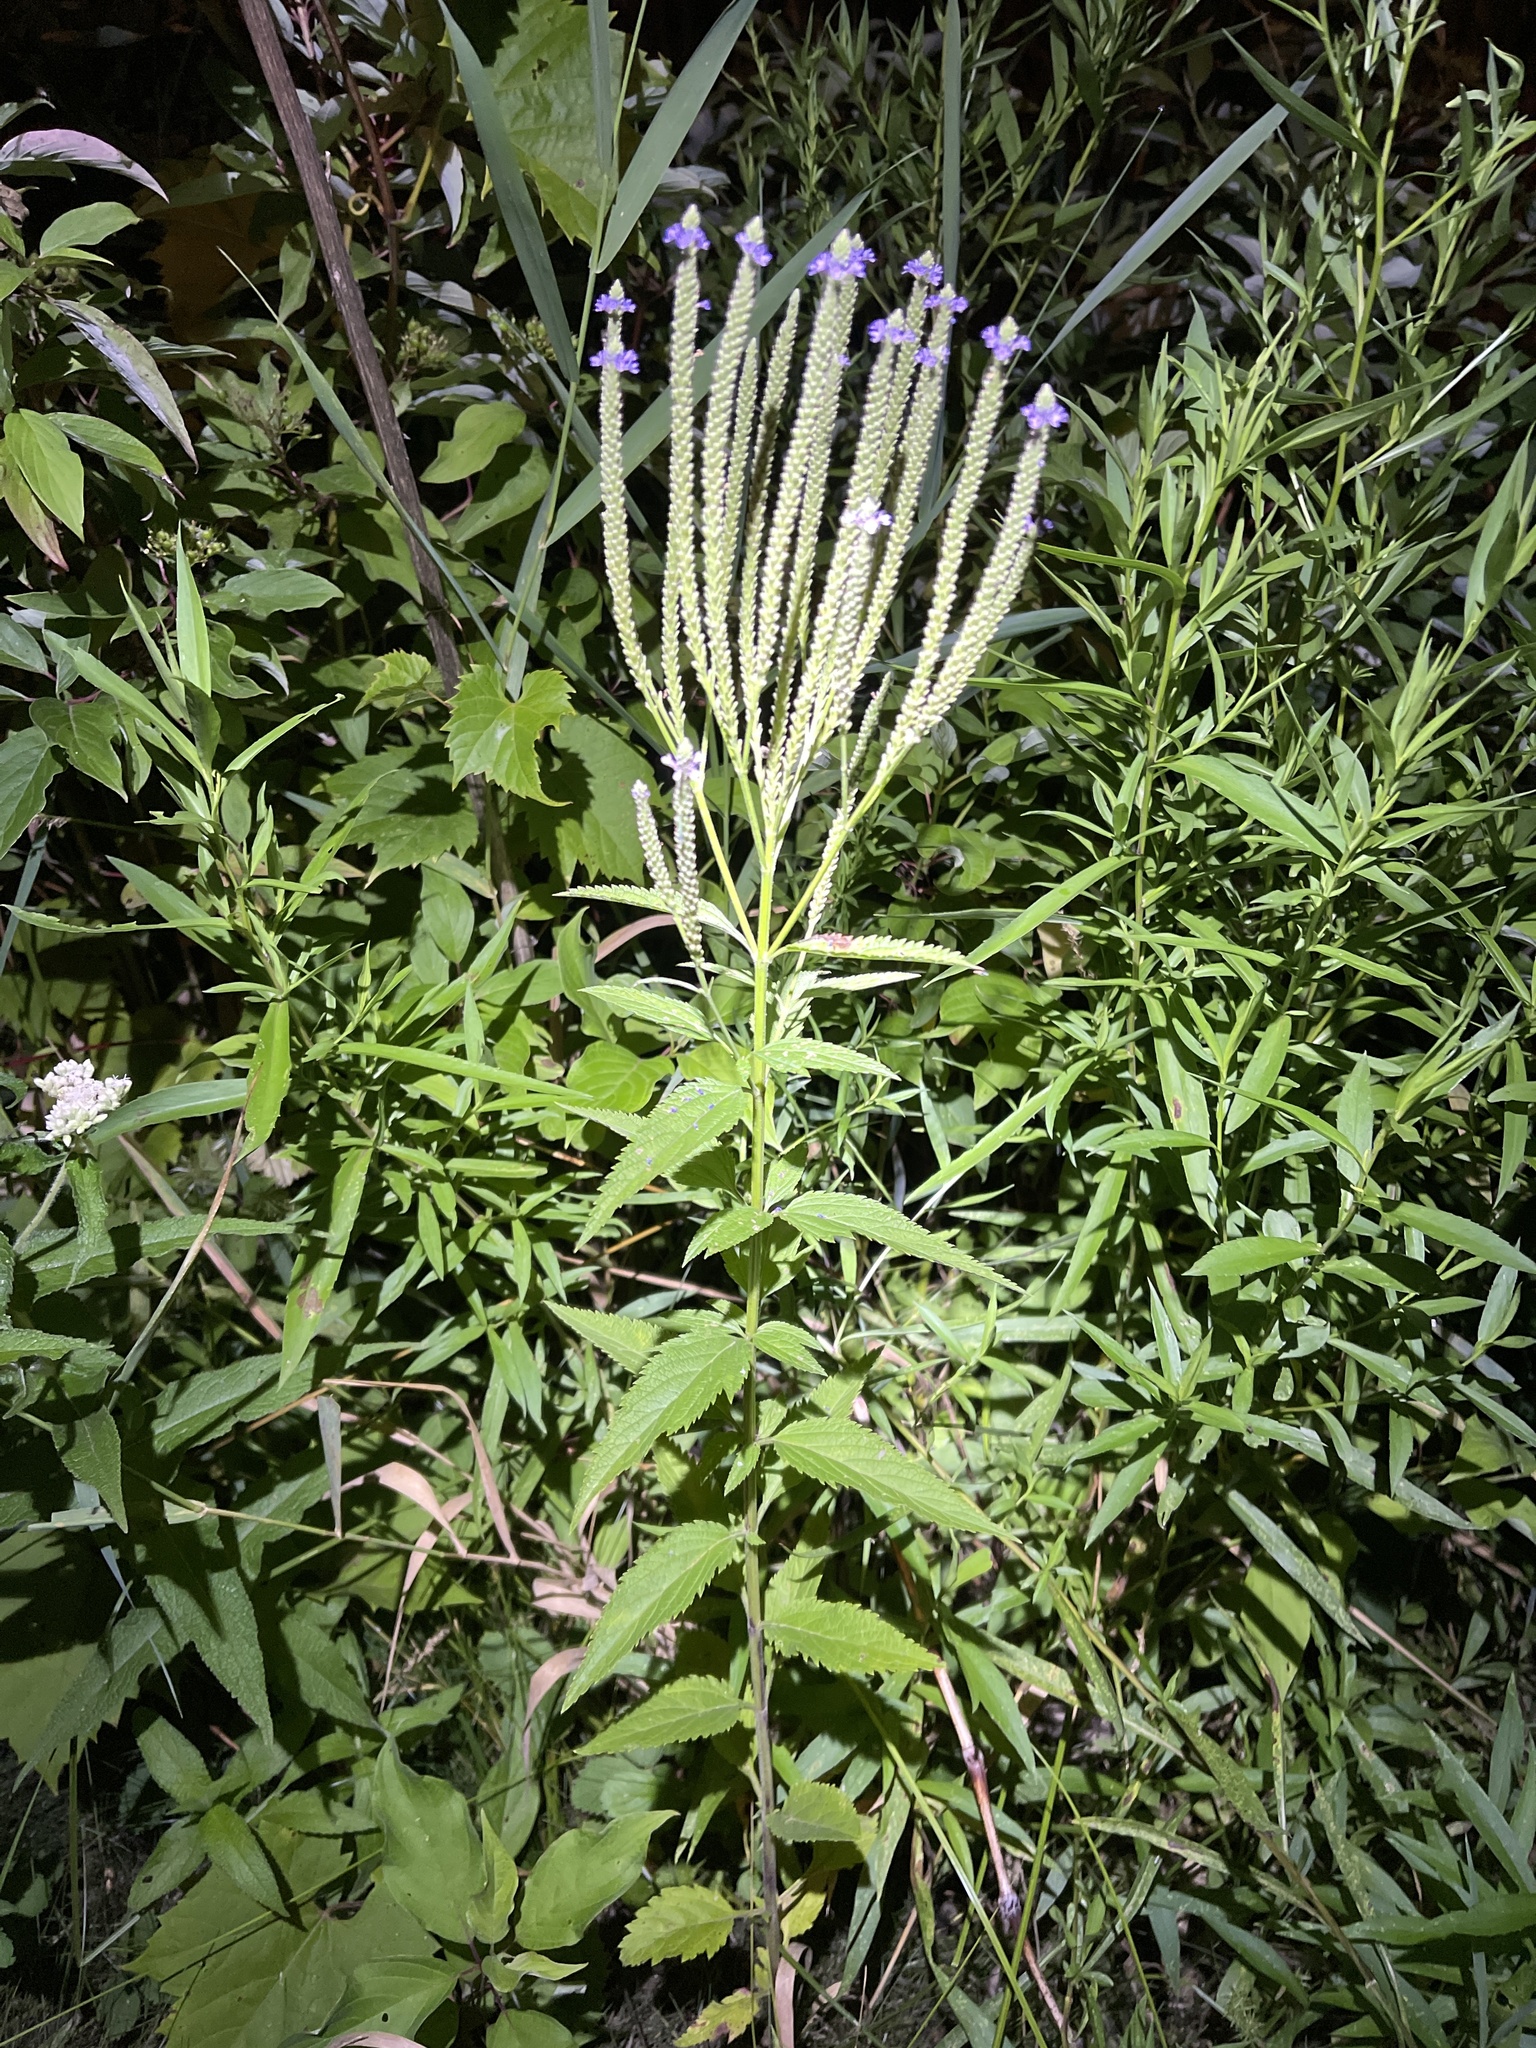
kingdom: Plantae
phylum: Tracheophyta
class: Magnoliopsida
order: Lamiales
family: Verbenaceae
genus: Verbena
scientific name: Verbena hastata
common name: American blue vervain
